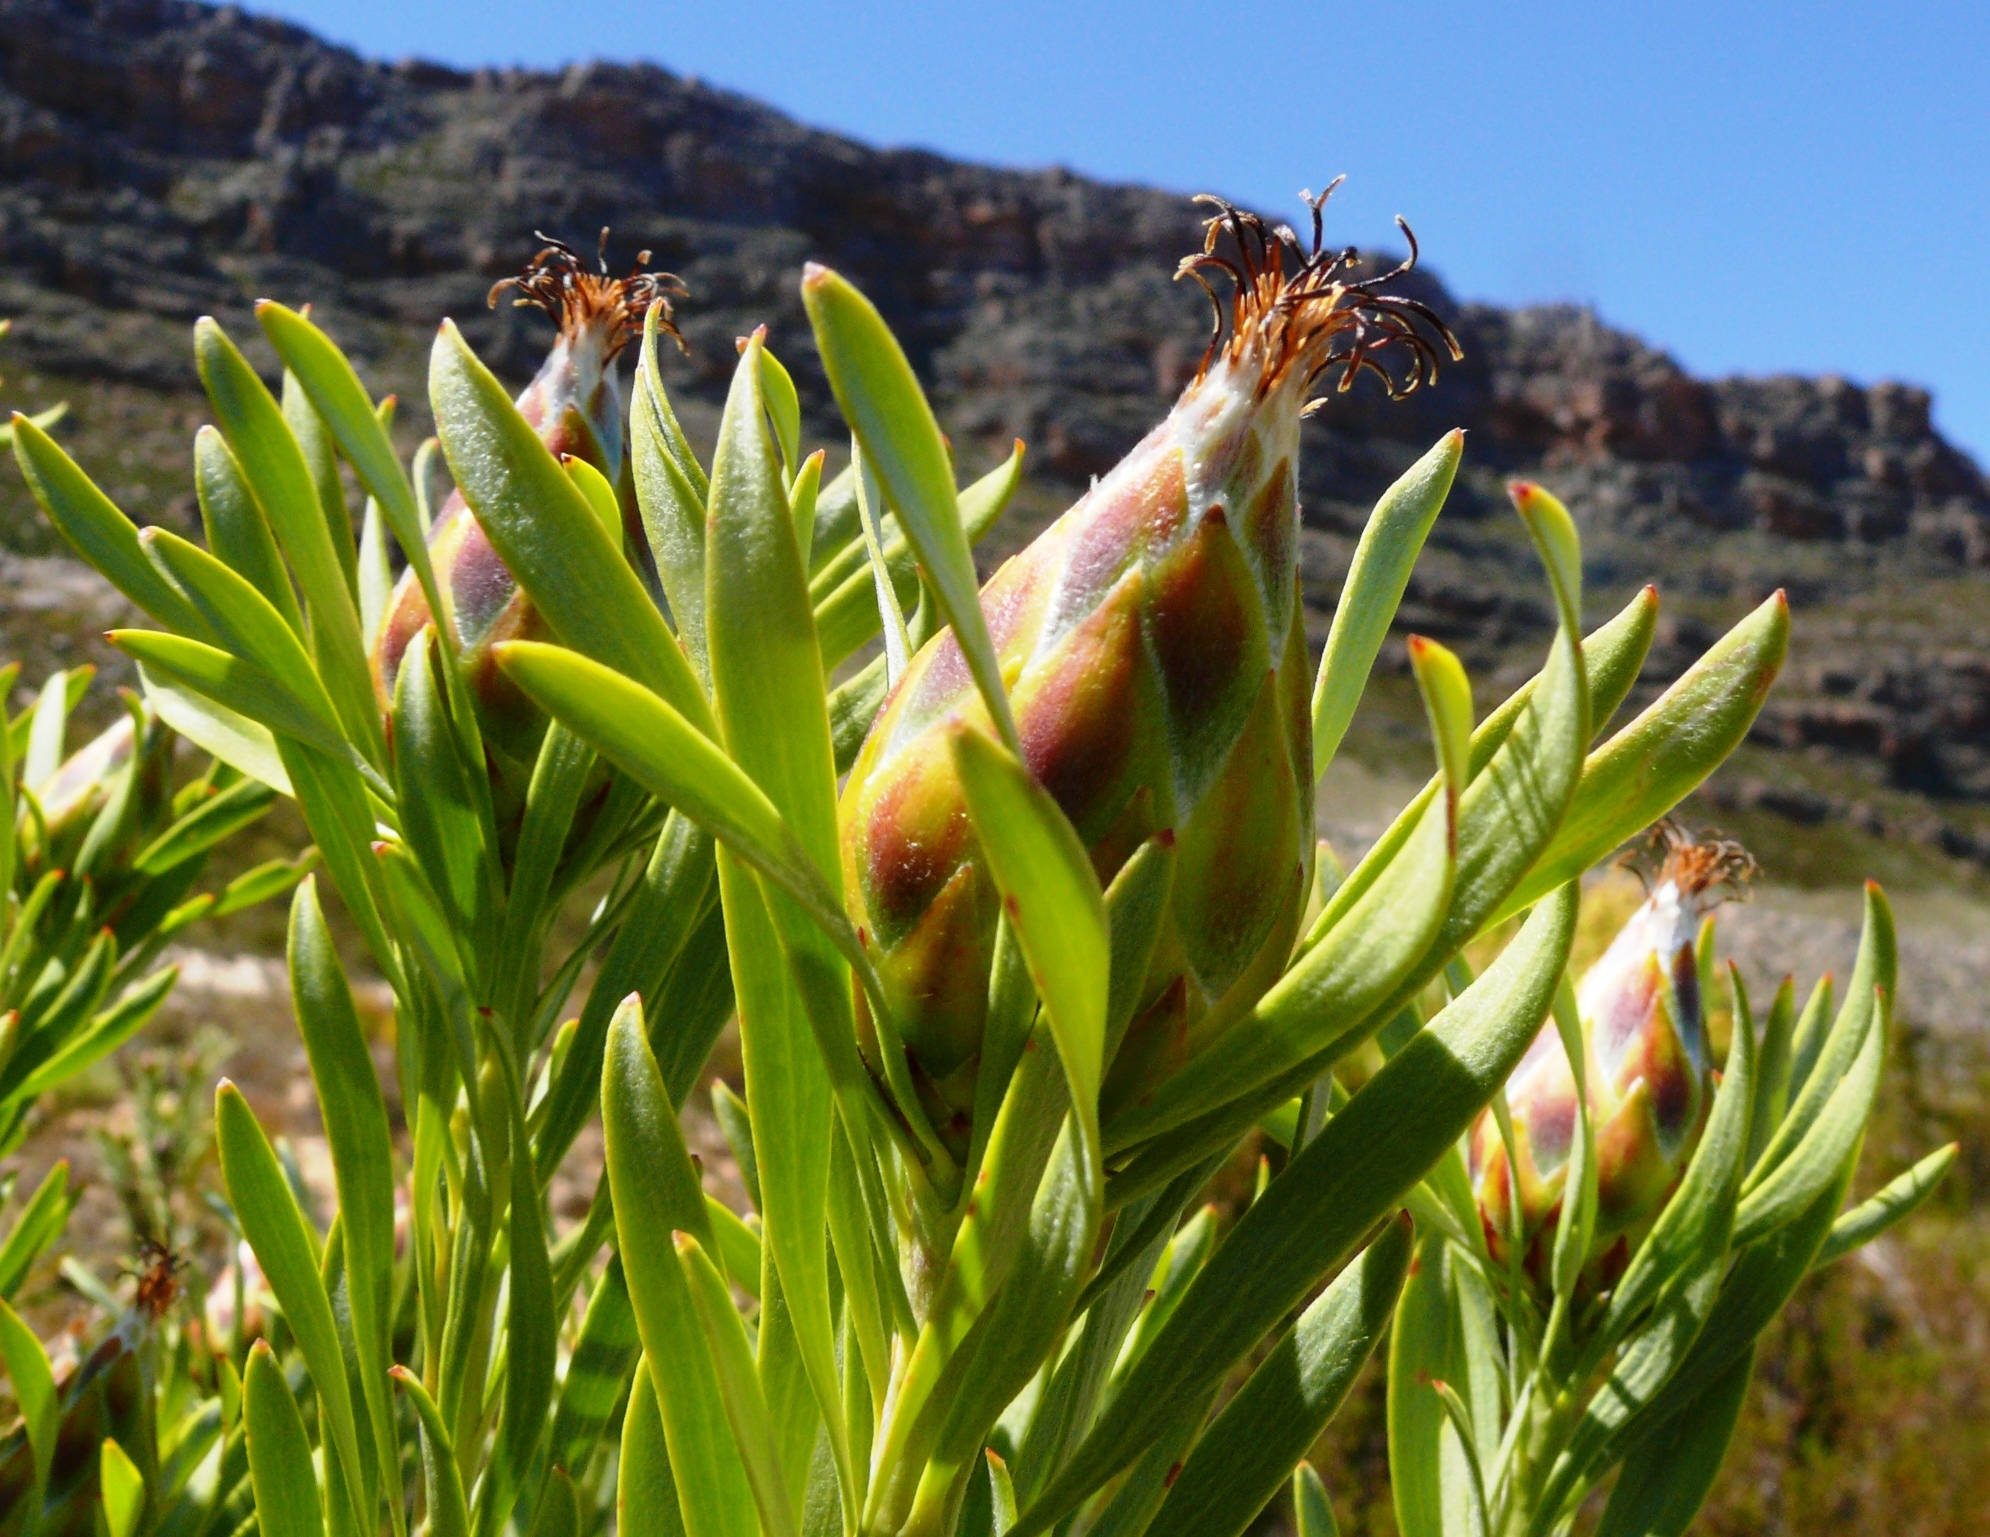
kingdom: Plantae
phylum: Tracheophyta
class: Magnoliopsida
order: Proteales
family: Proteaceae
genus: Leucadendron
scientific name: Leucadendron rubrum
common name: Spinning top
